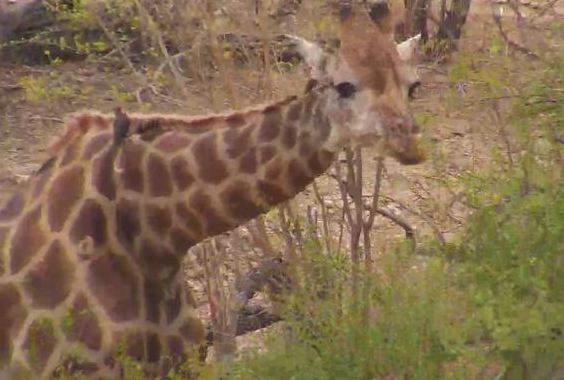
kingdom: Animalia
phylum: Chordata
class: Mammalia
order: Artiodactyla
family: Giraffidae
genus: Giraffa
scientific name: Giraffa giraffa
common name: Southern giraffe
